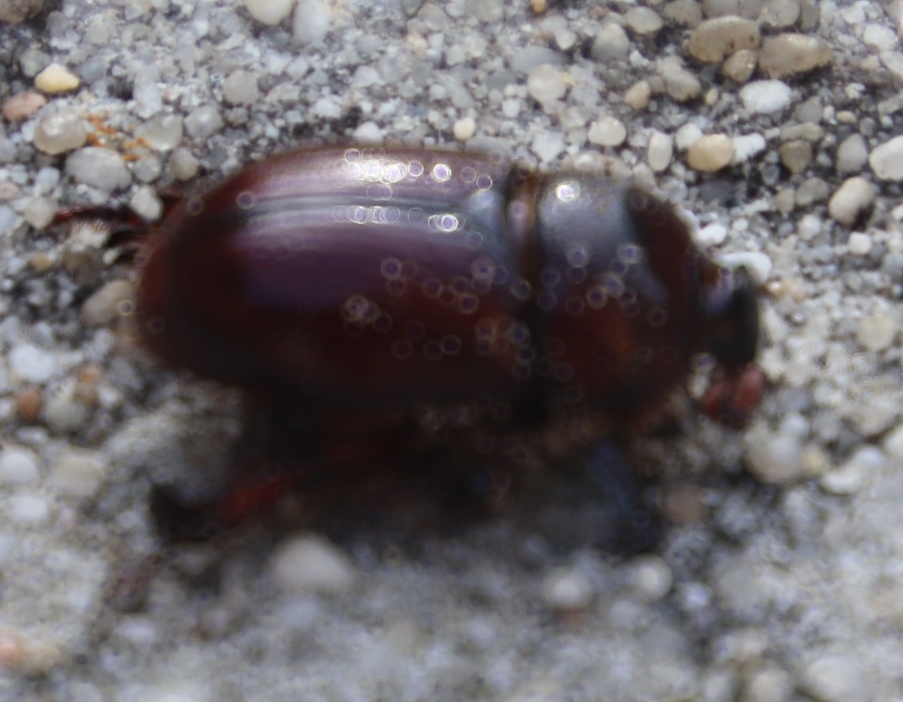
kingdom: Animalia
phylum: Arthropoda
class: Insecta
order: Coleoptera
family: Scarabaeidae
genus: Temnorhynchus
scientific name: Temnorhynchus retusus
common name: Plate-faced beetle
